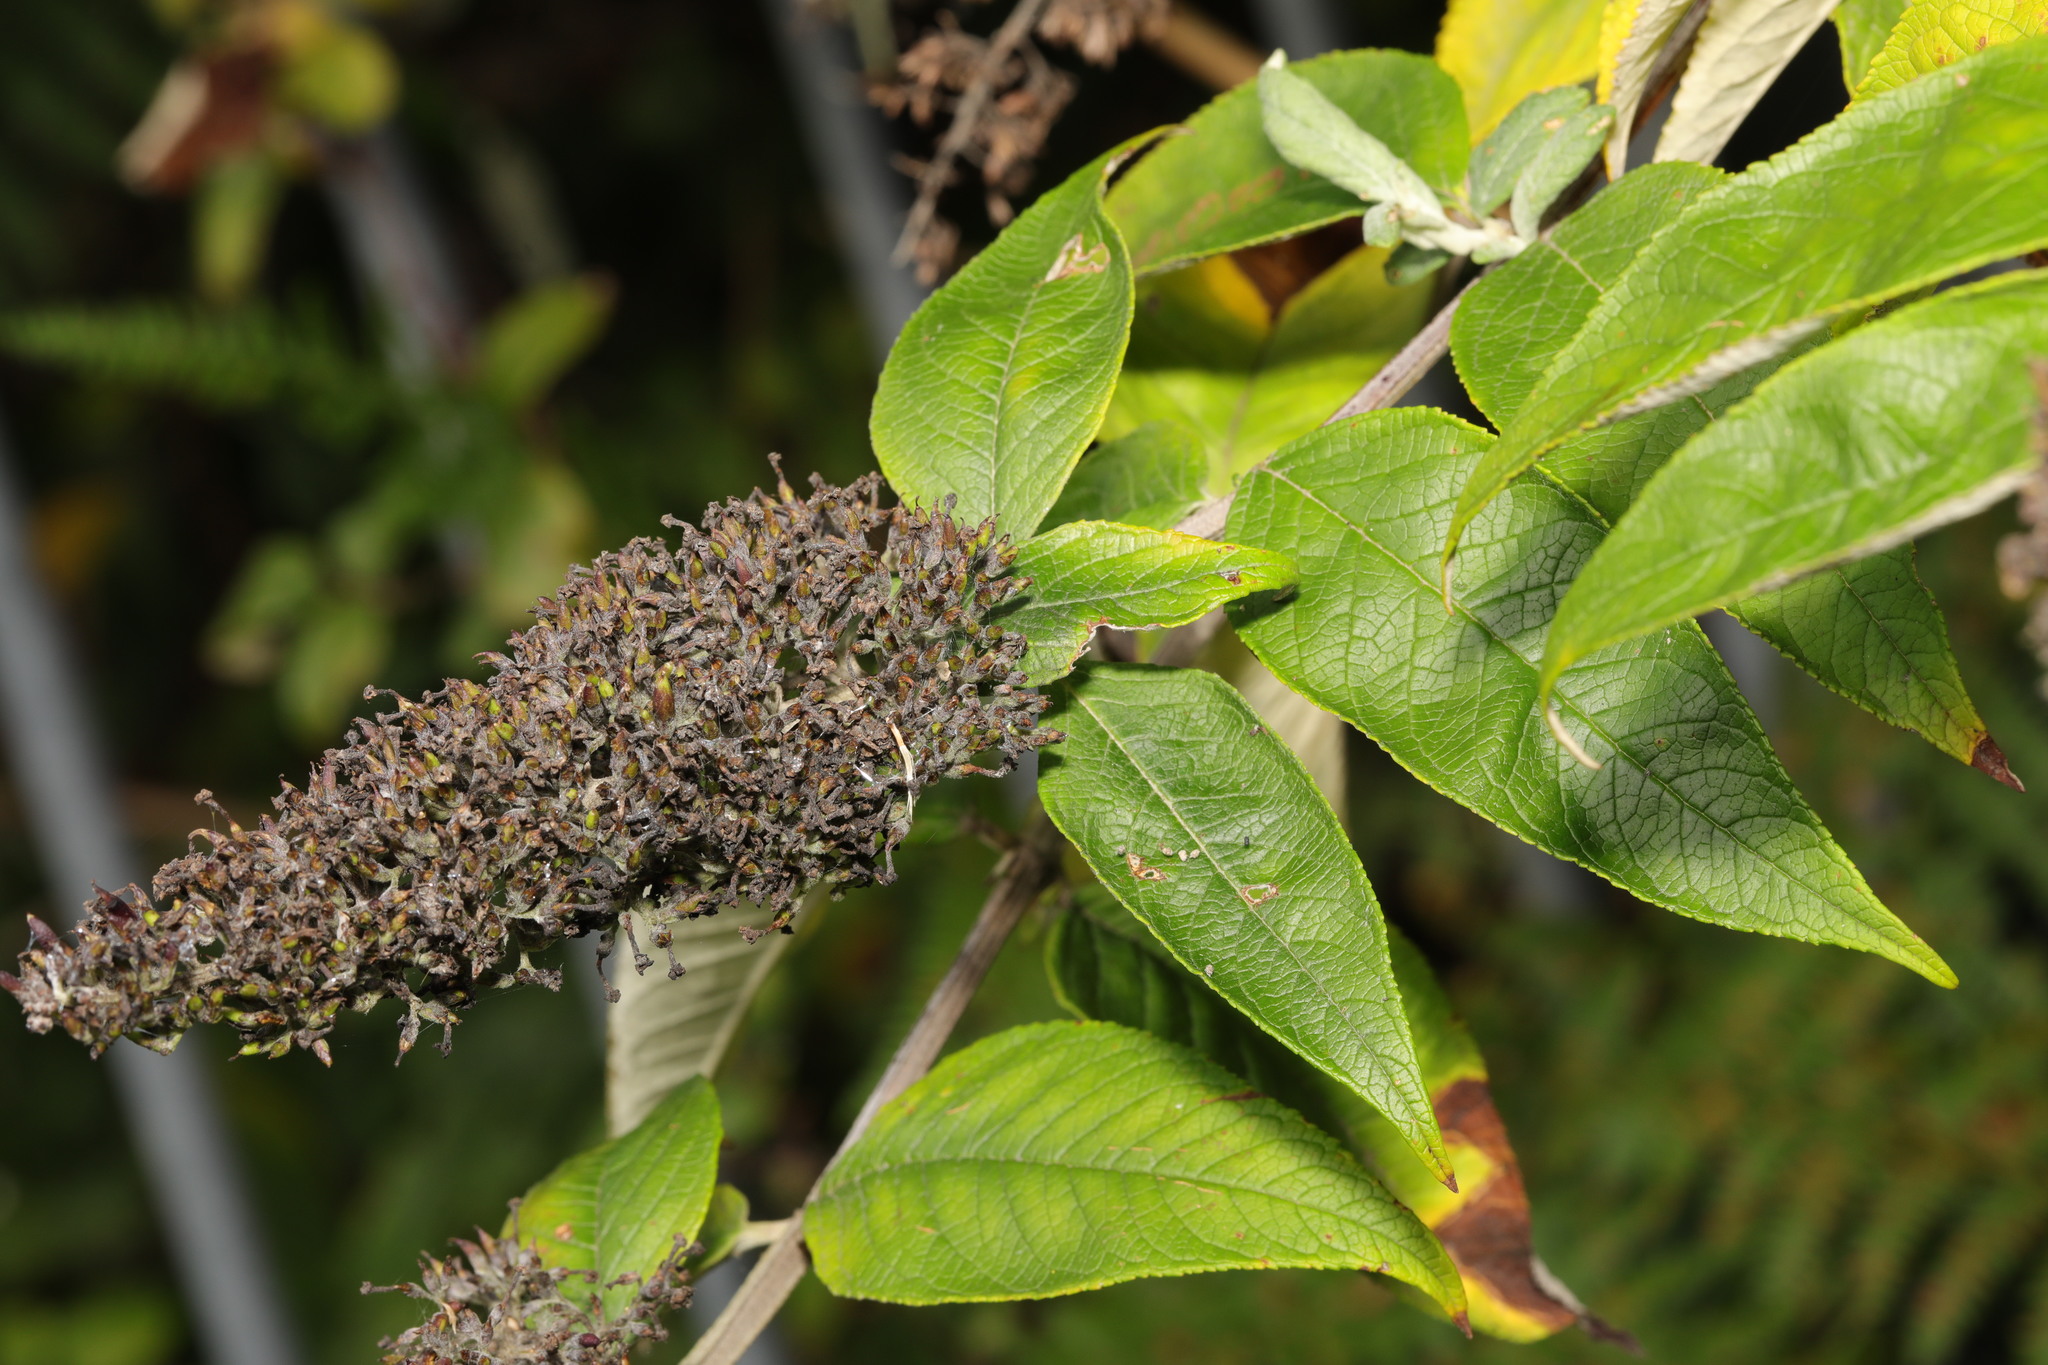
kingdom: Plantae
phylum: Tracheophyta
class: Magnoliopsida
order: Lamiales
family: Scrophulariaceae
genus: Buddleja
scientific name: Buddleja davidii
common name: Butterfly-bush
